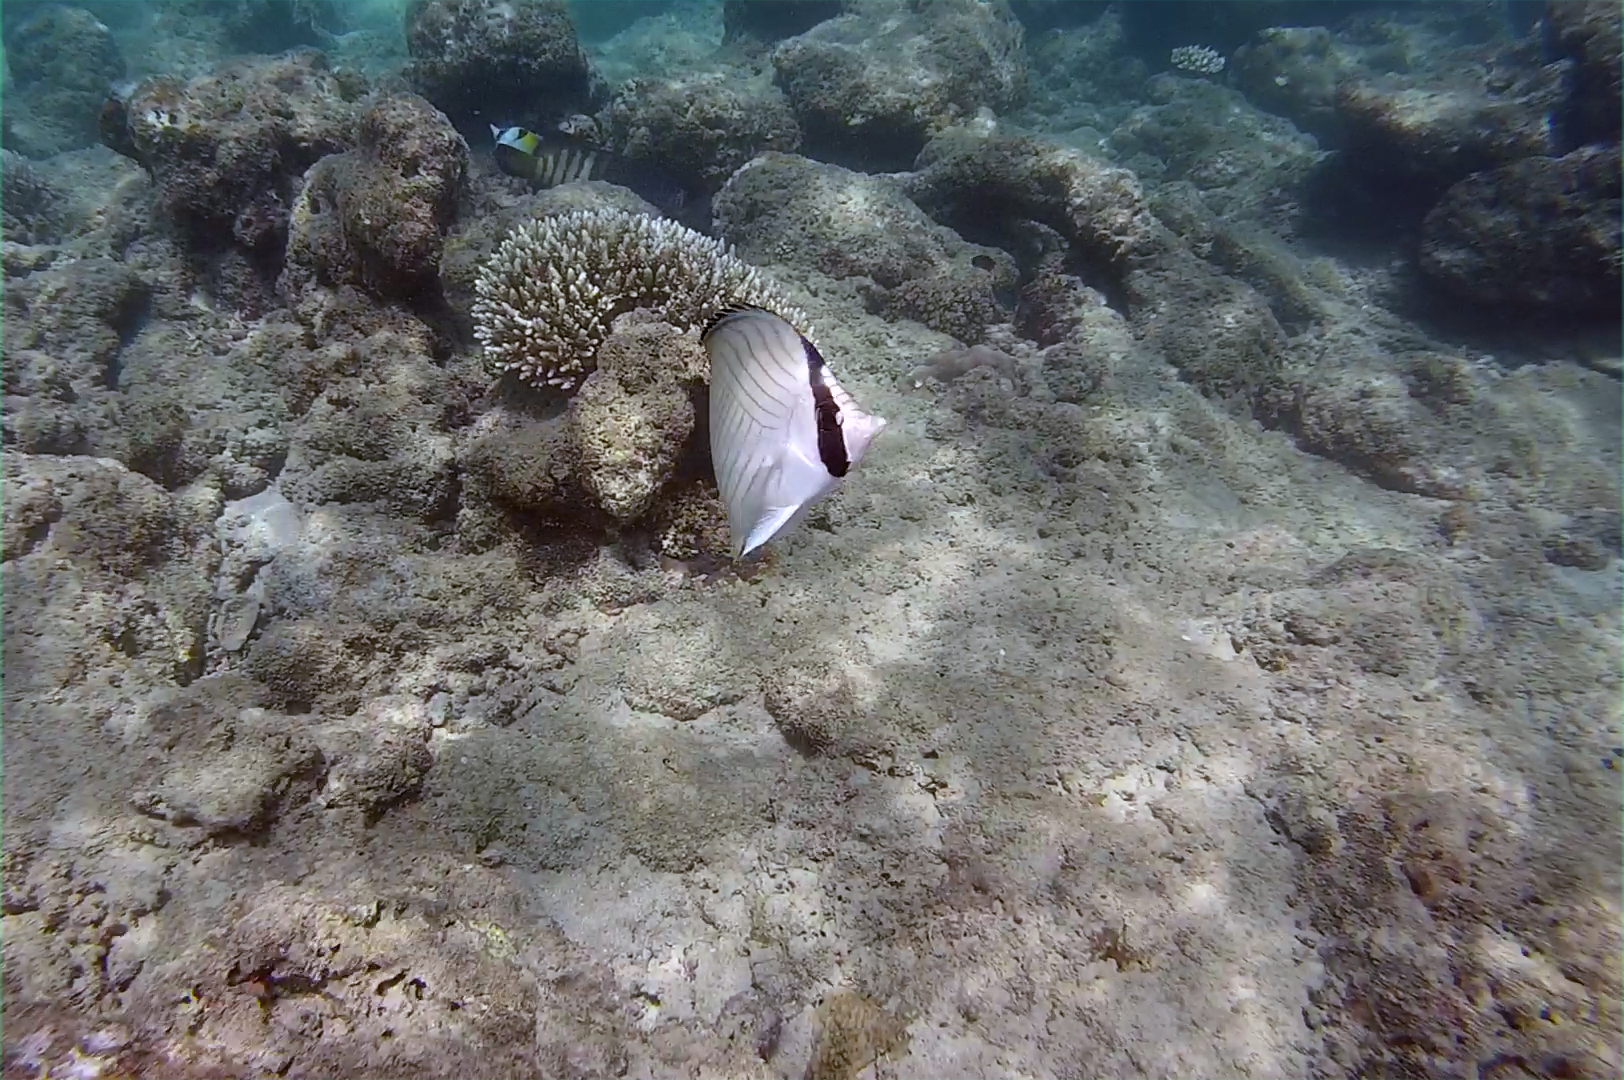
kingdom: Animalia
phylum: Chordata
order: Perciformes
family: Chaetodontidae
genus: Chaetodon
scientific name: Chaetodon vagabundus
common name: Vagabond butterflyfish
